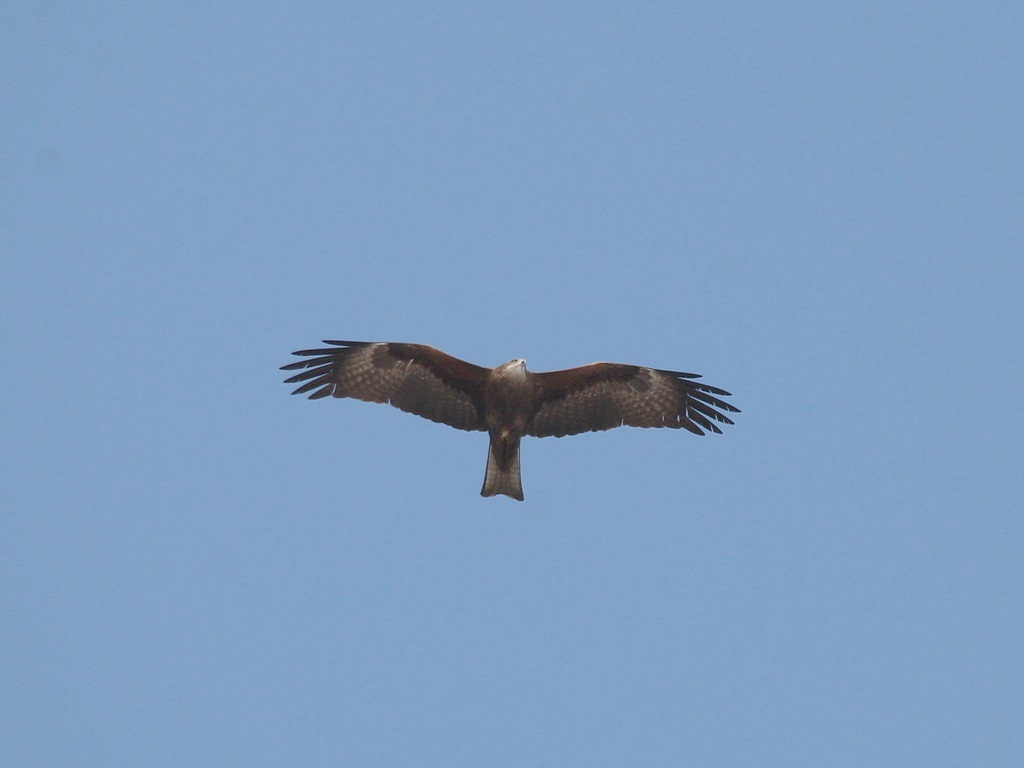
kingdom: Animalia
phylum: Chordata
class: Aves
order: Accipitriformes
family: Accipitridae
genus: Milvus
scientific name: Milvus migrans
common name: Black kite
